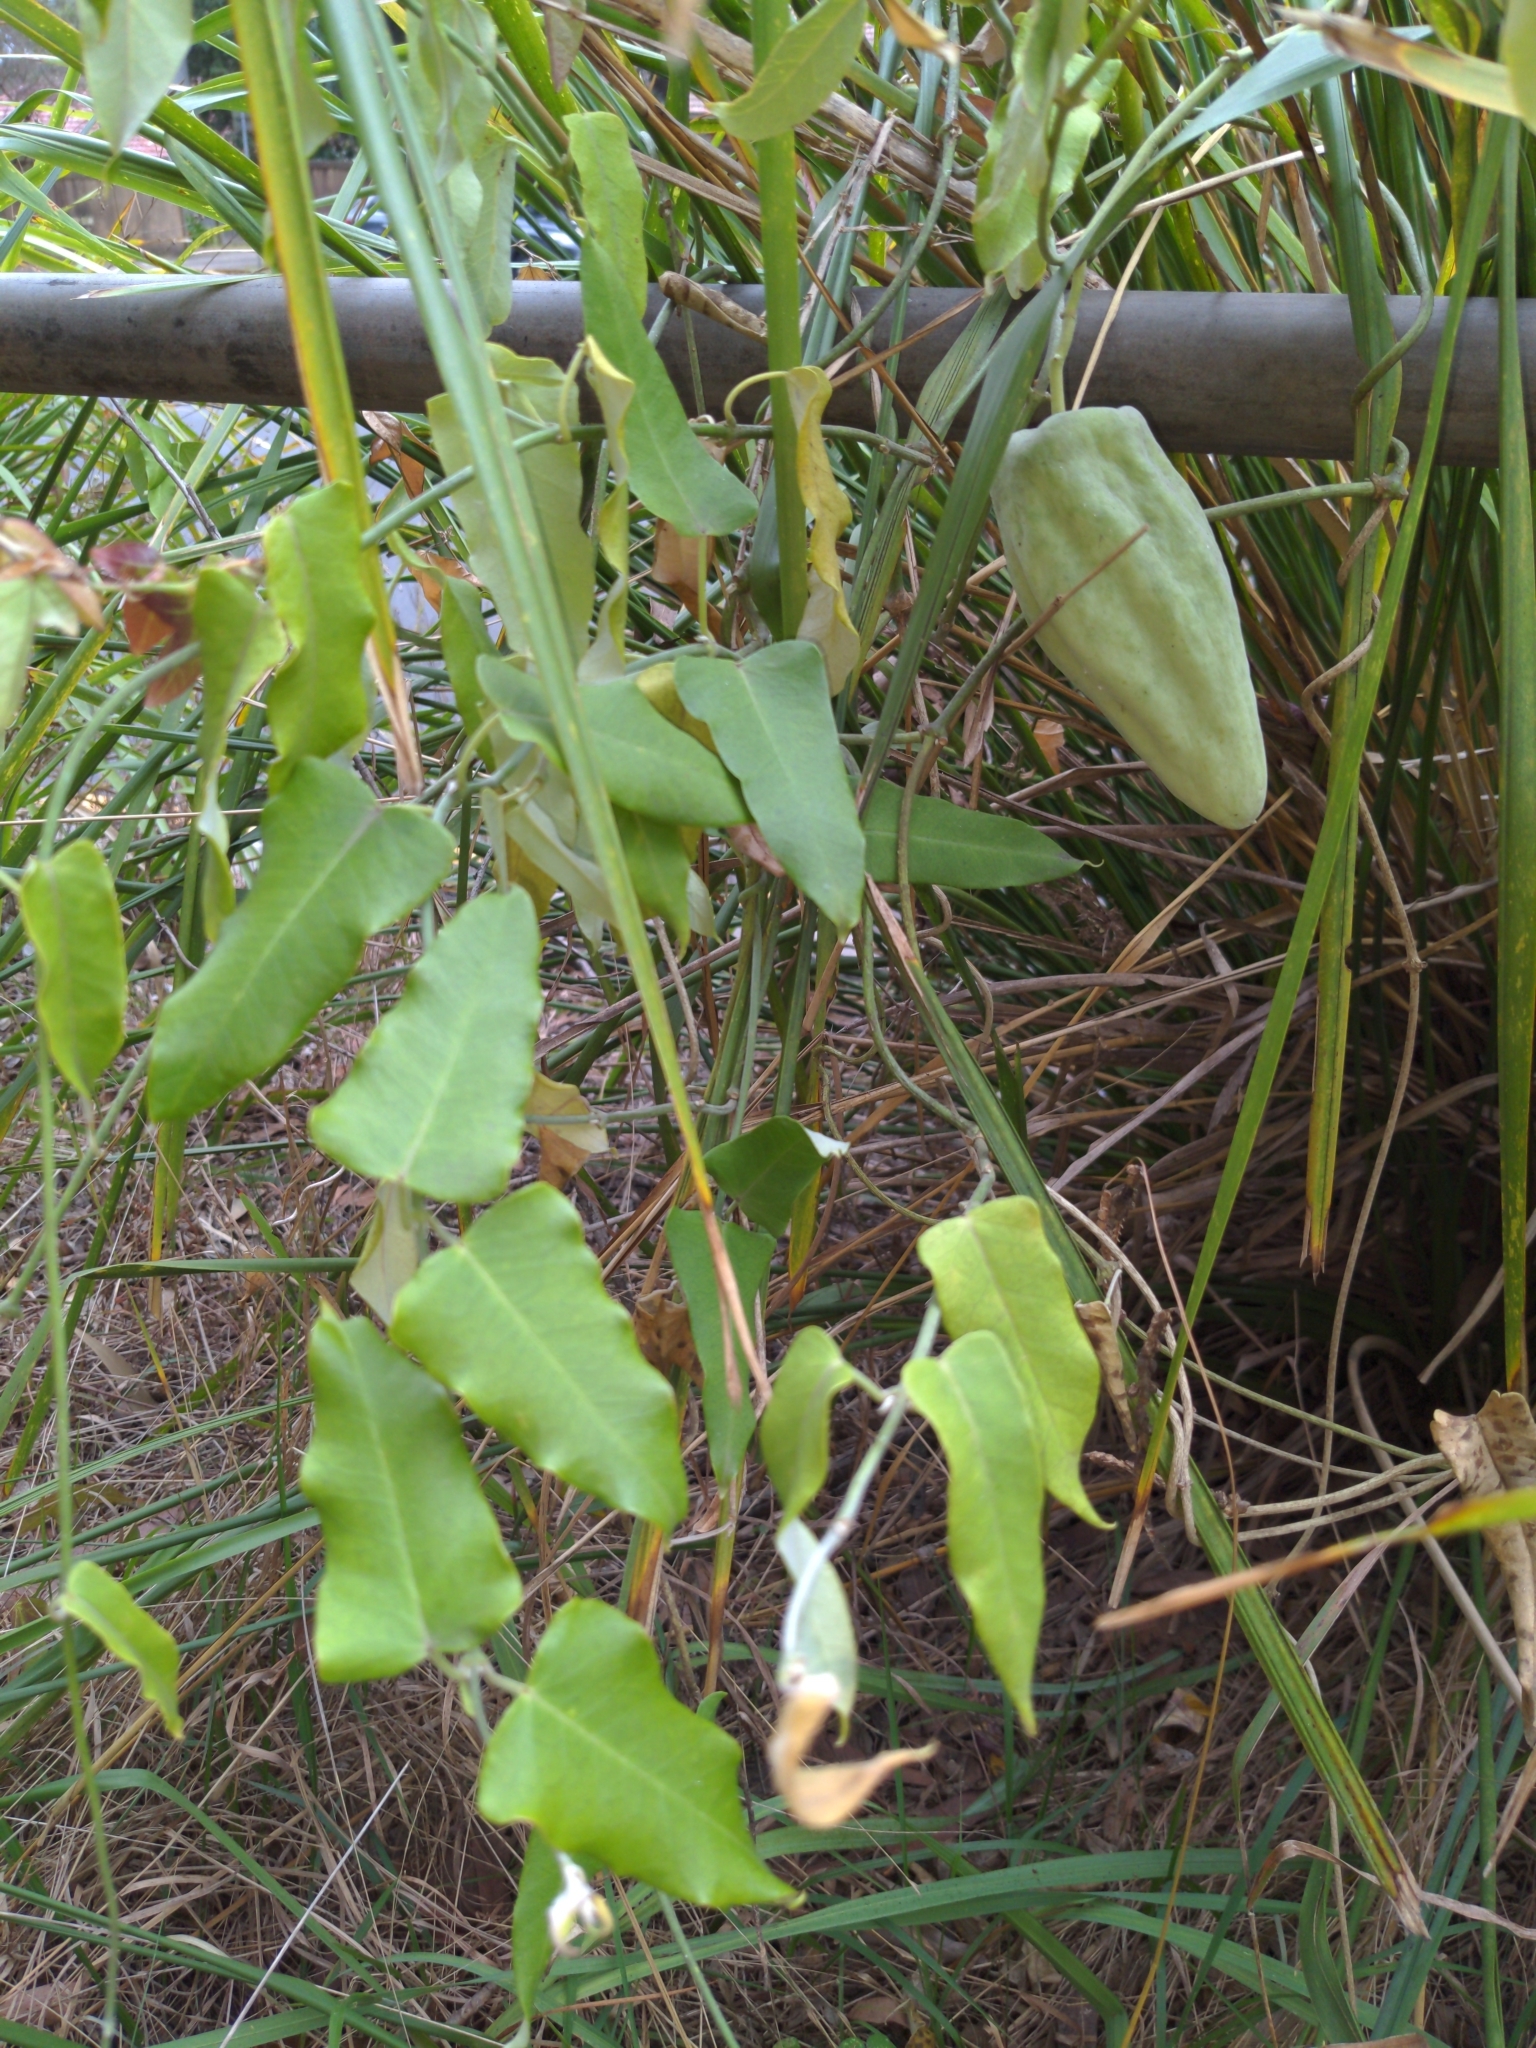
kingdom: Plantae
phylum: Tracheophyta
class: Magnoliopsida
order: Gentianales
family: Apocynaceae
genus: Araujia
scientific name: Araujia sericifera
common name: White bladderflower
